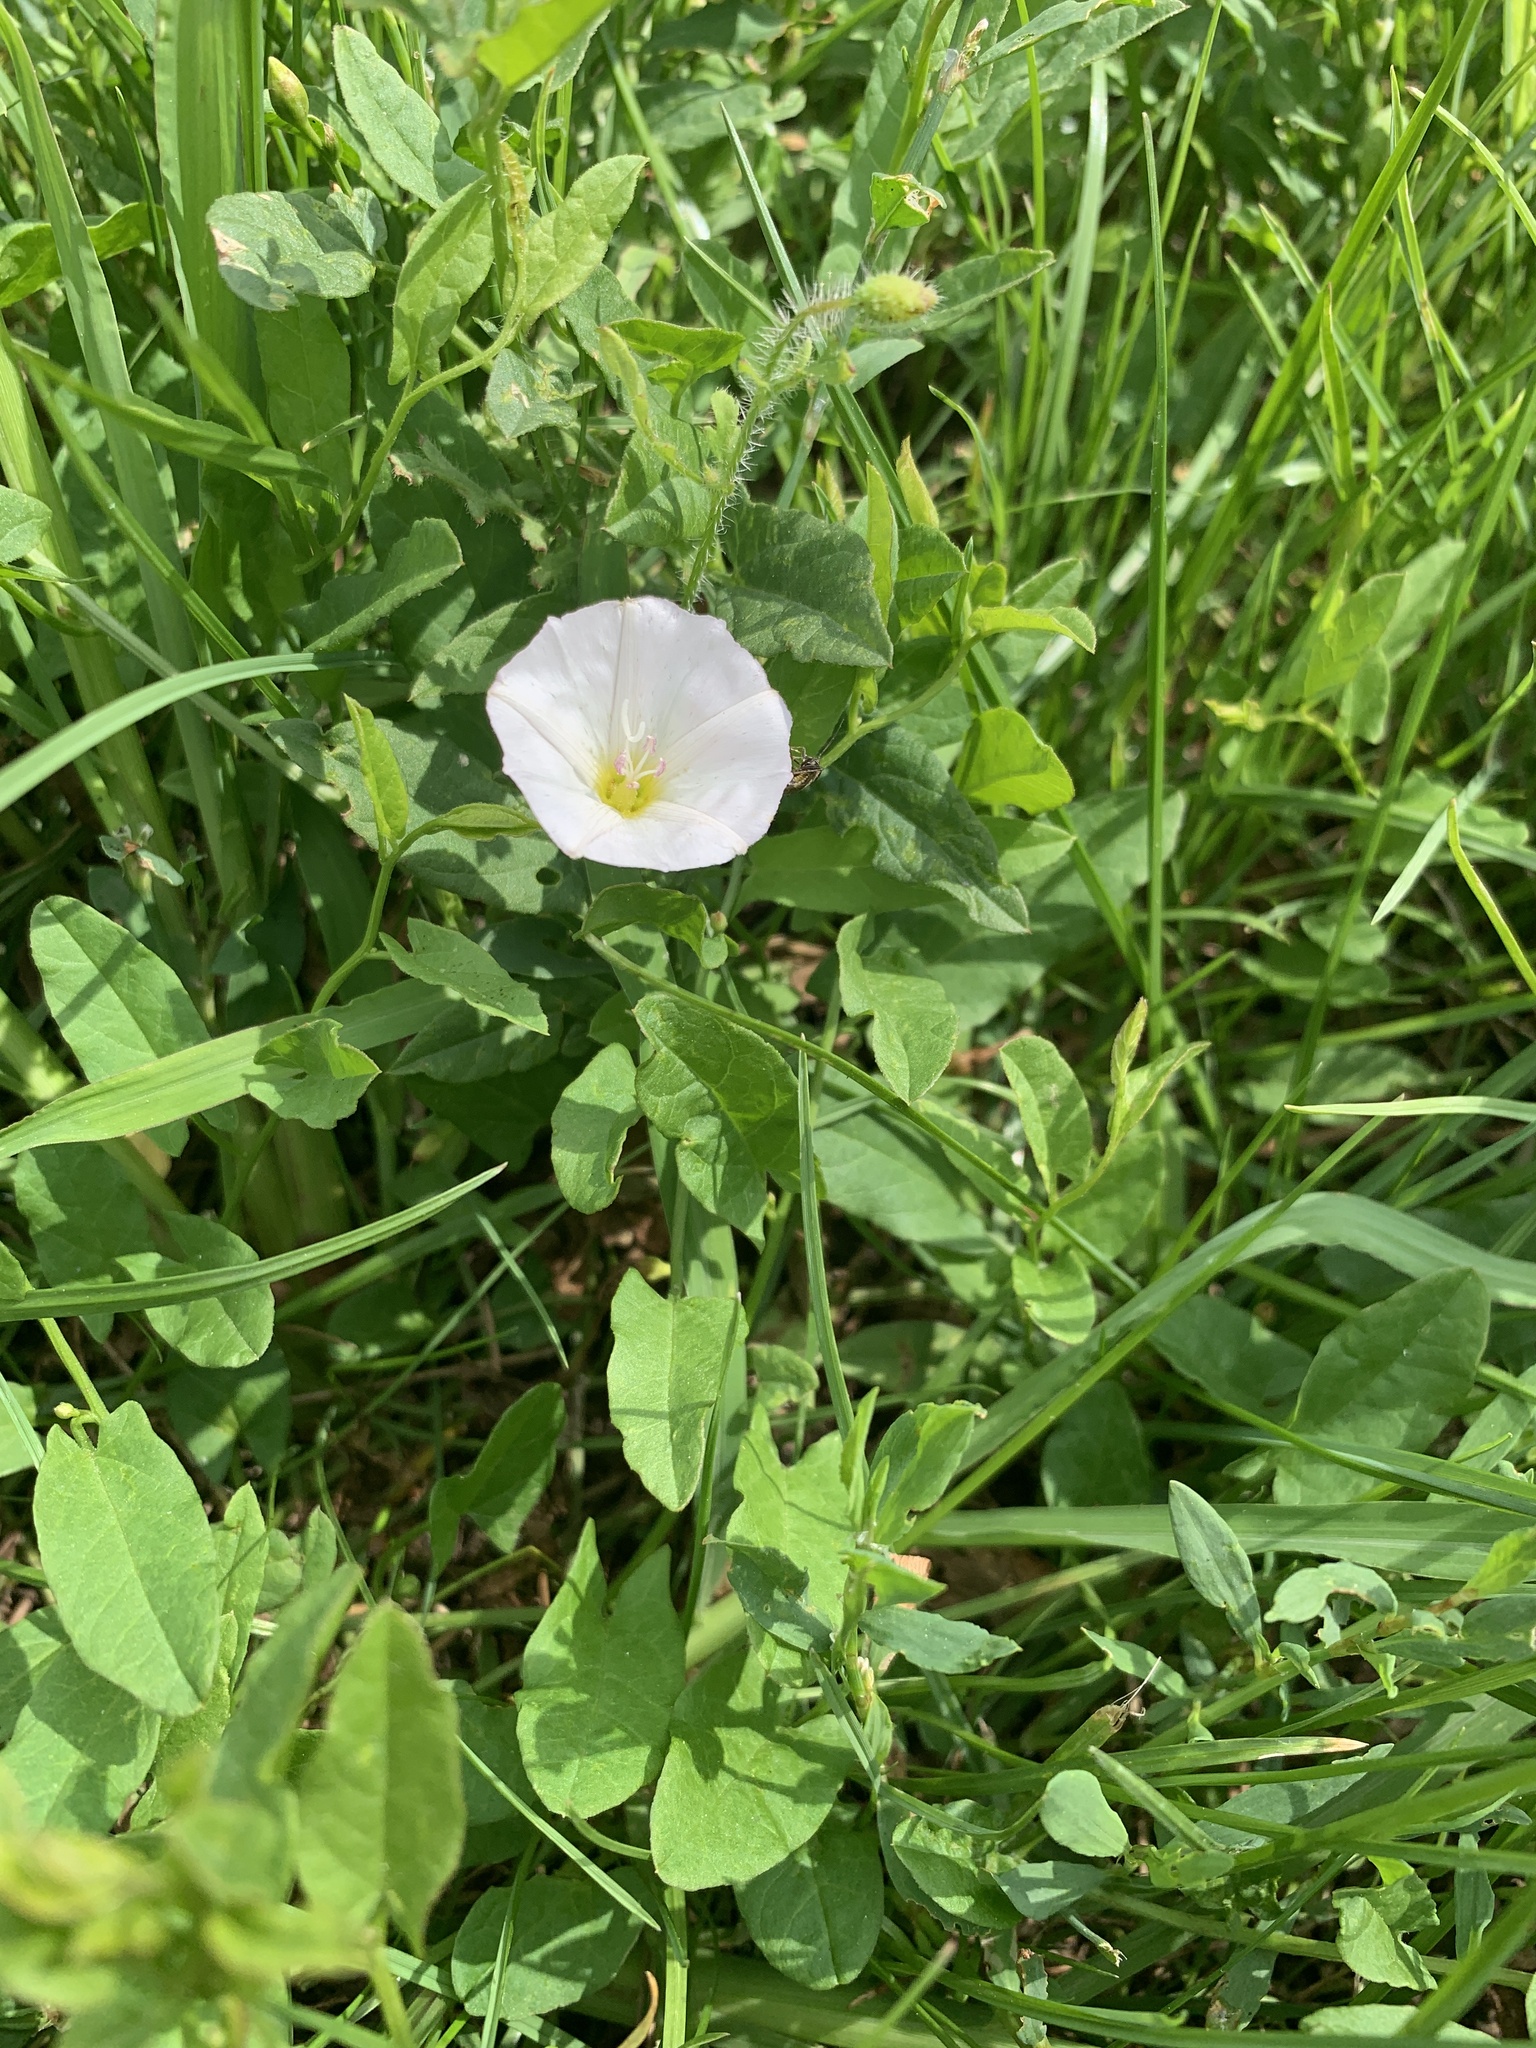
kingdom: Plantae
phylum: Tracheophyta
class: Magnoliopsida
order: Solanales
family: Convolvulaceae
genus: Convolvulus
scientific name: Convolvulus arvensis
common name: Field bindweed
